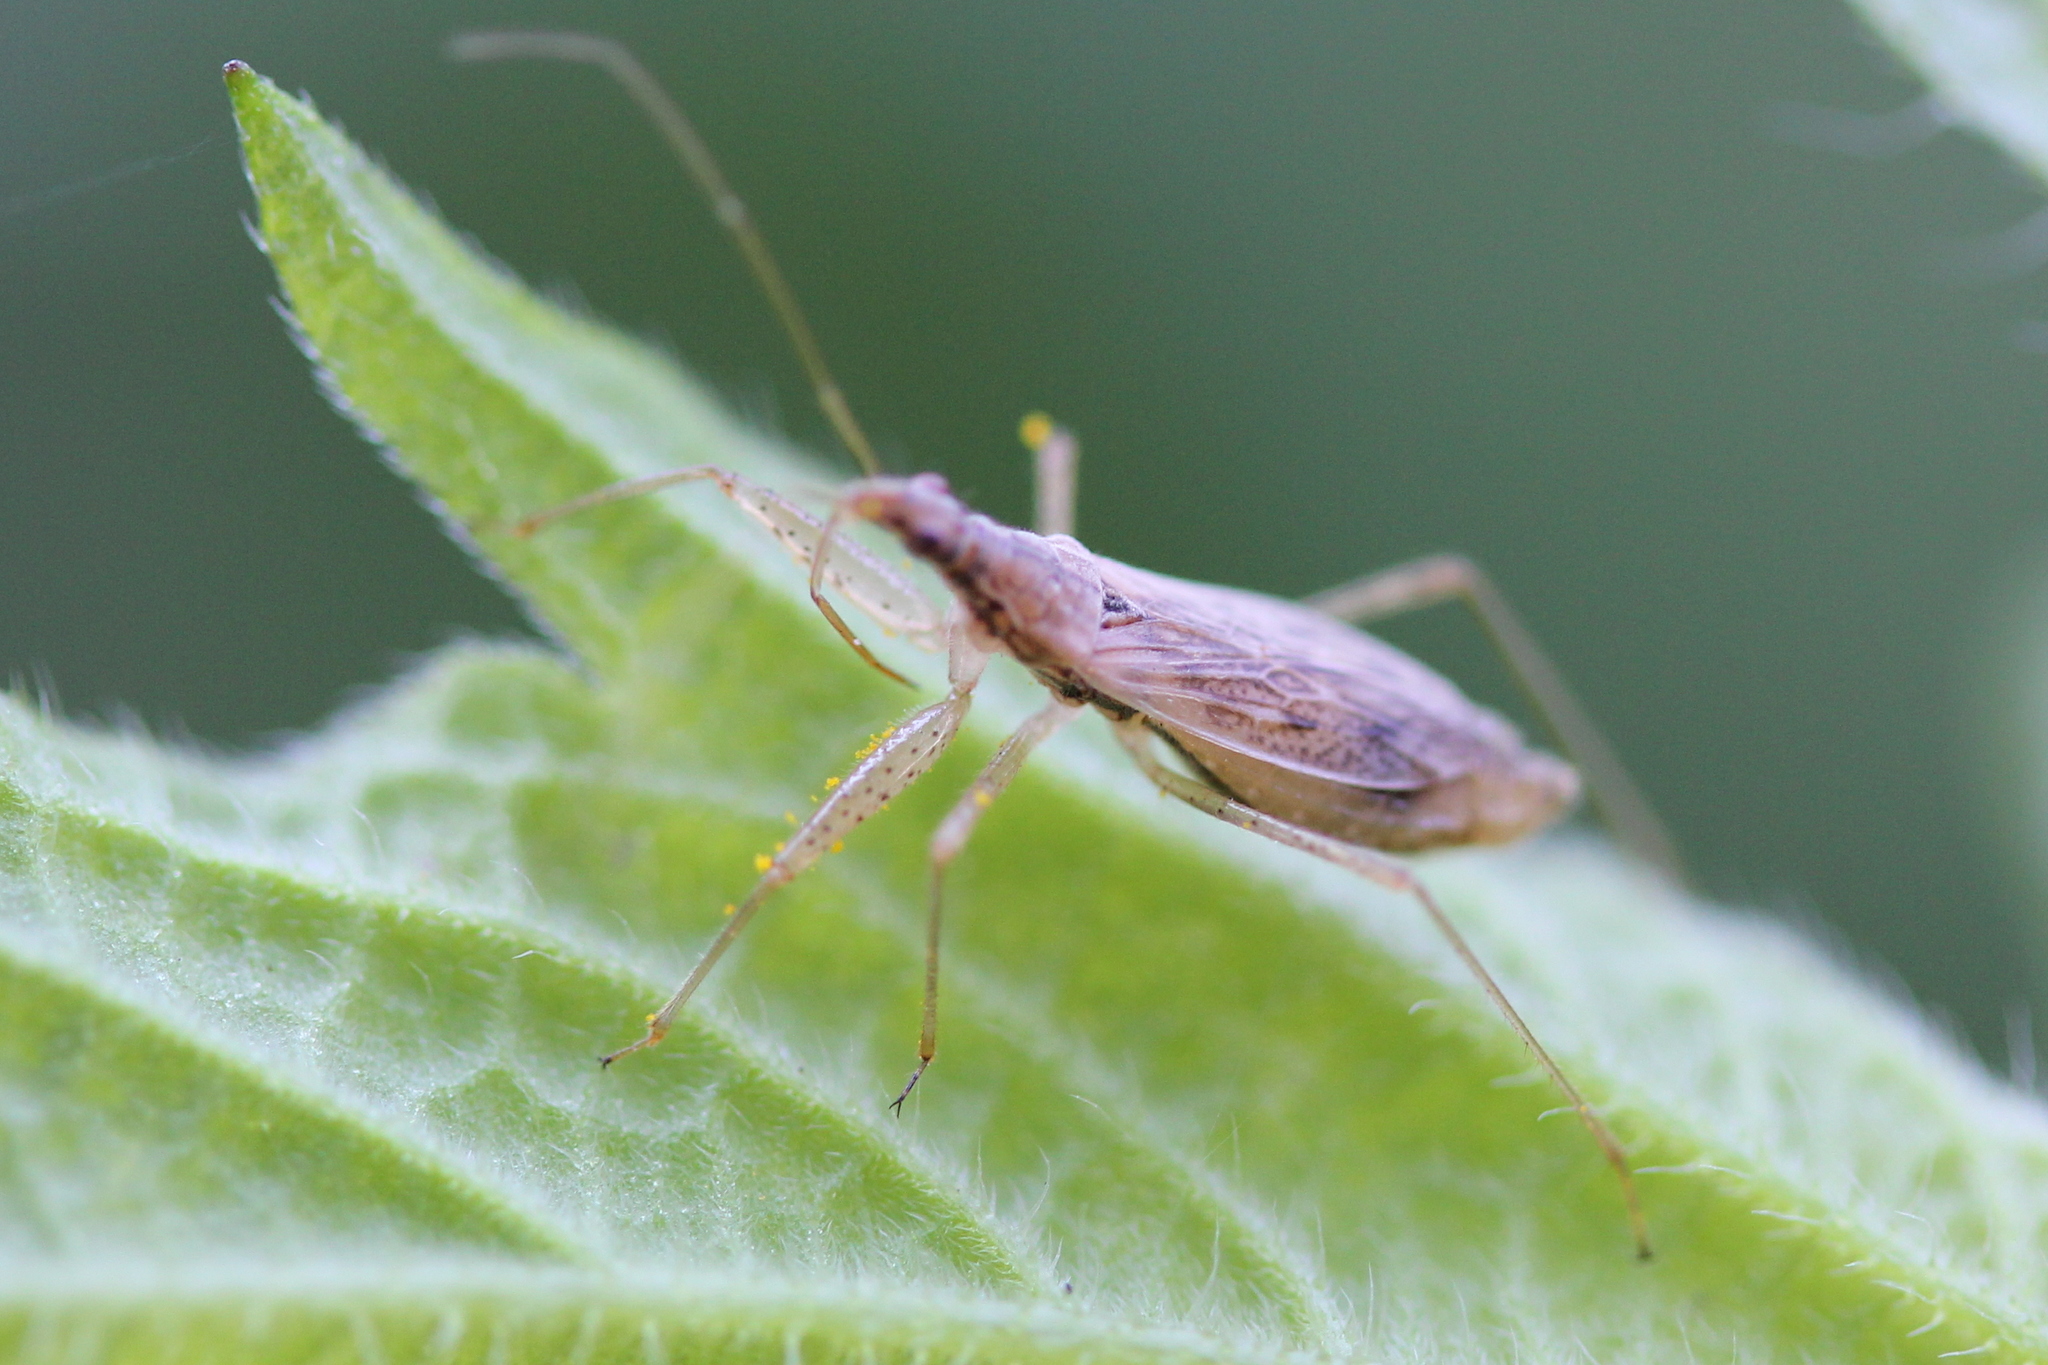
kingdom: Animalia
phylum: Arthropoda
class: Insecta
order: Hemiptera
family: Nabidae
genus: Nabis
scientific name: Nabis rufusculus
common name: Short-winged nabis
